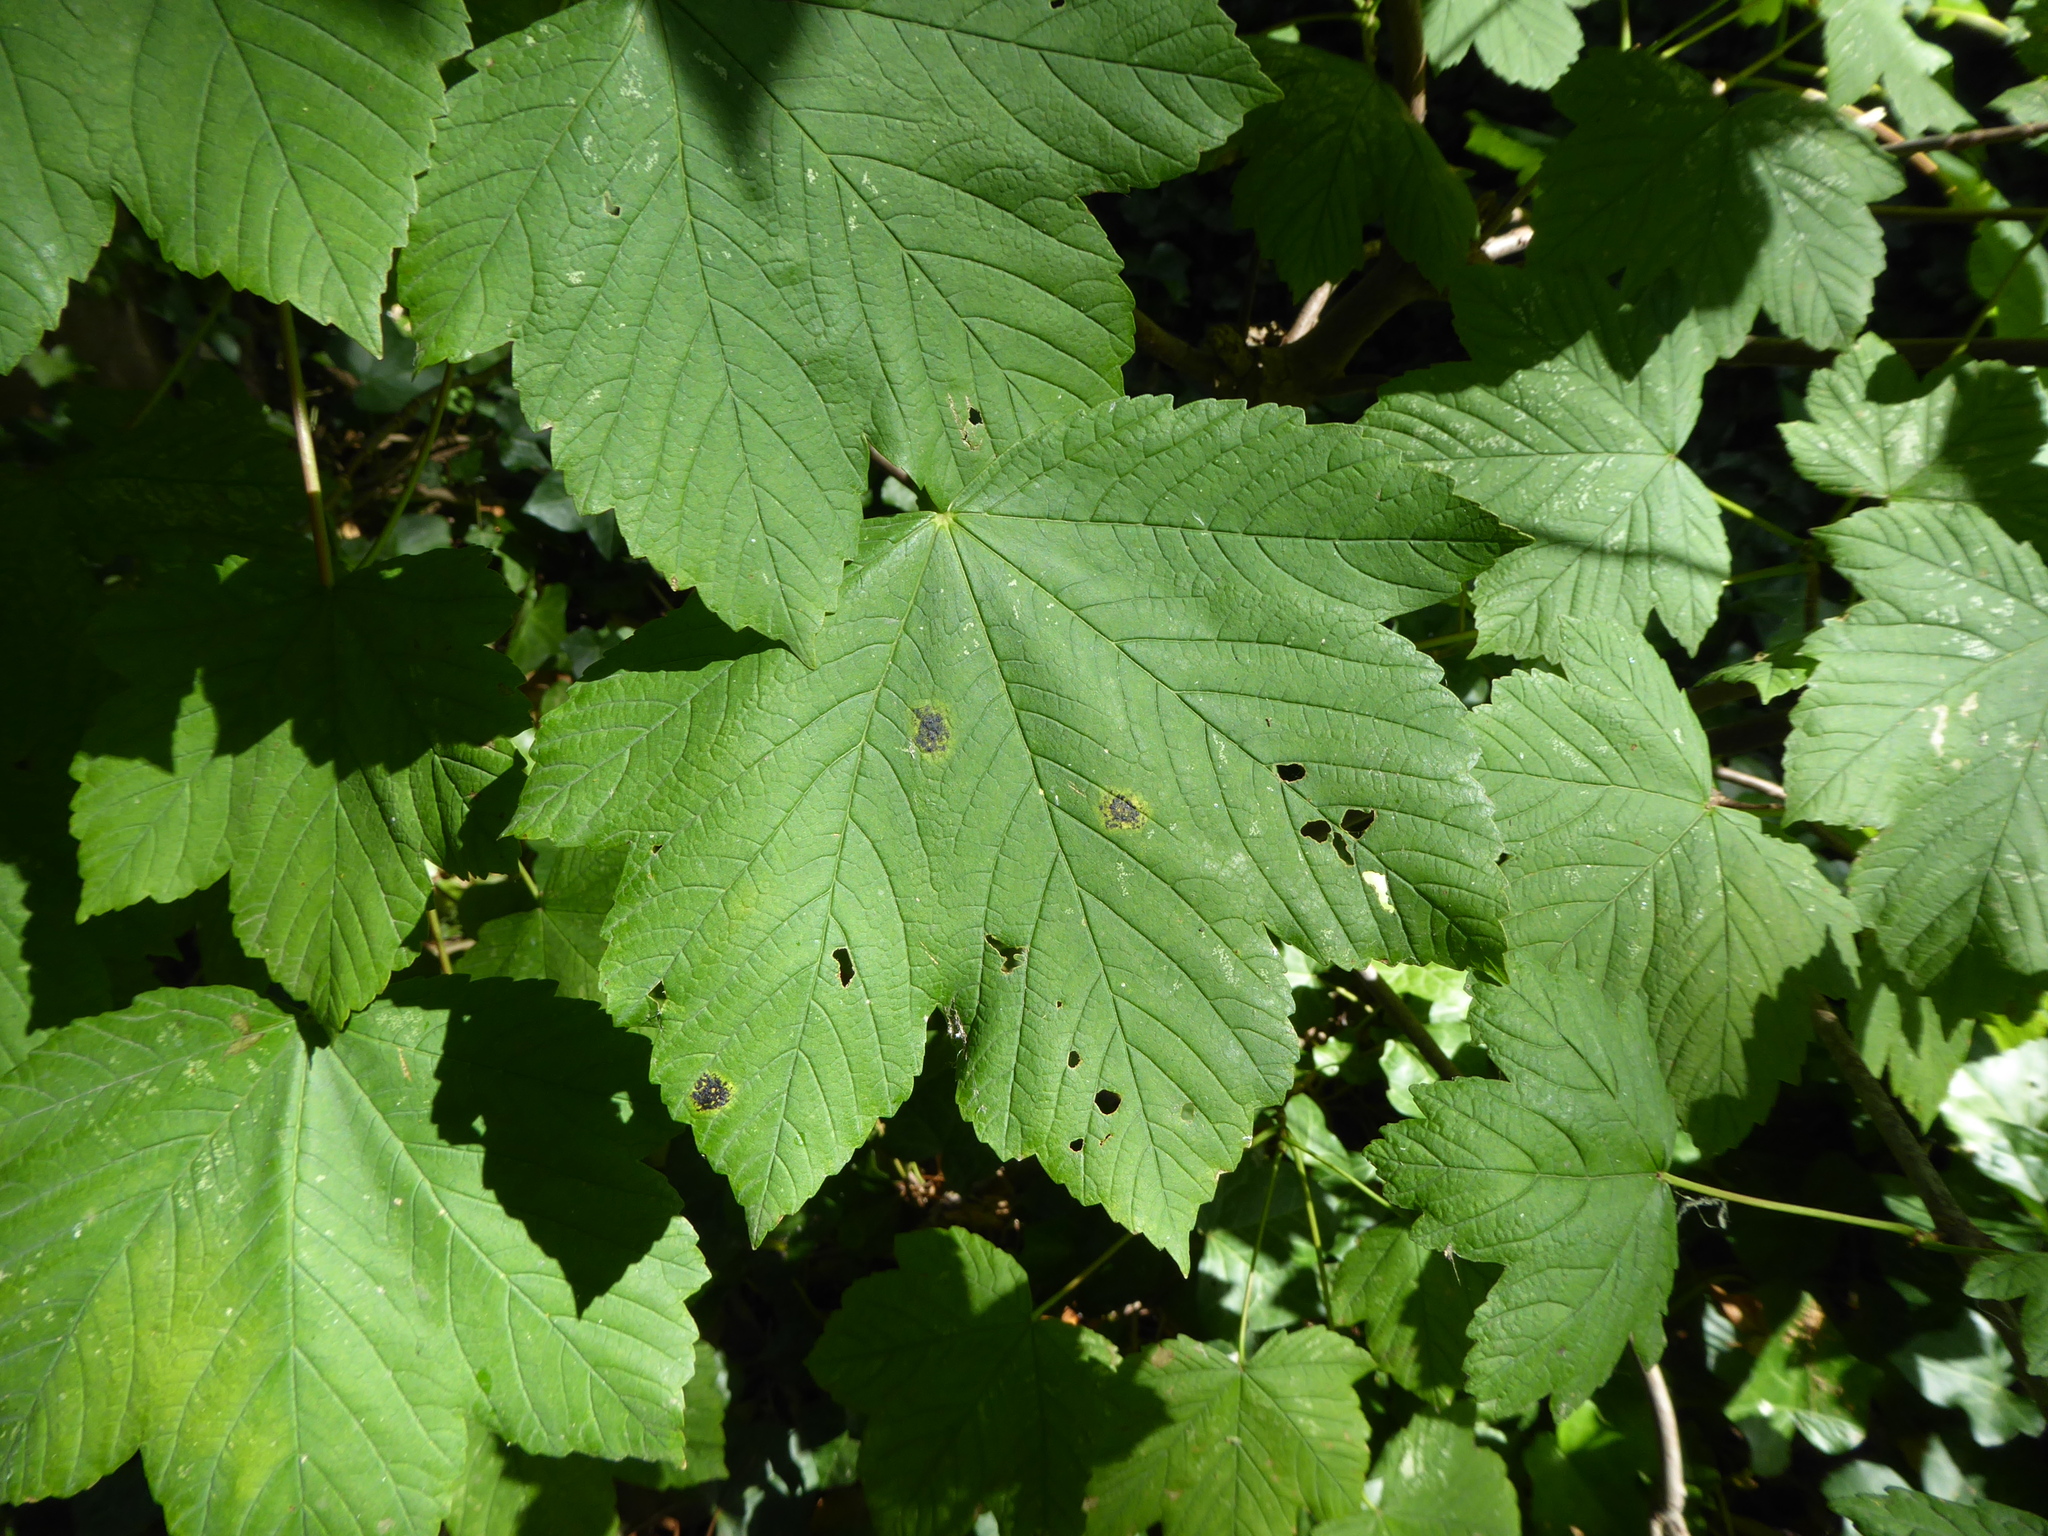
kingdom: Fungi
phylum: Ascomycota
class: Leotiomycetes
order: Rhytismatales
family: Rhytismataceae
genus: Rhytisma
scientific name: Rhytisma acerinum
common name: European tar spot
